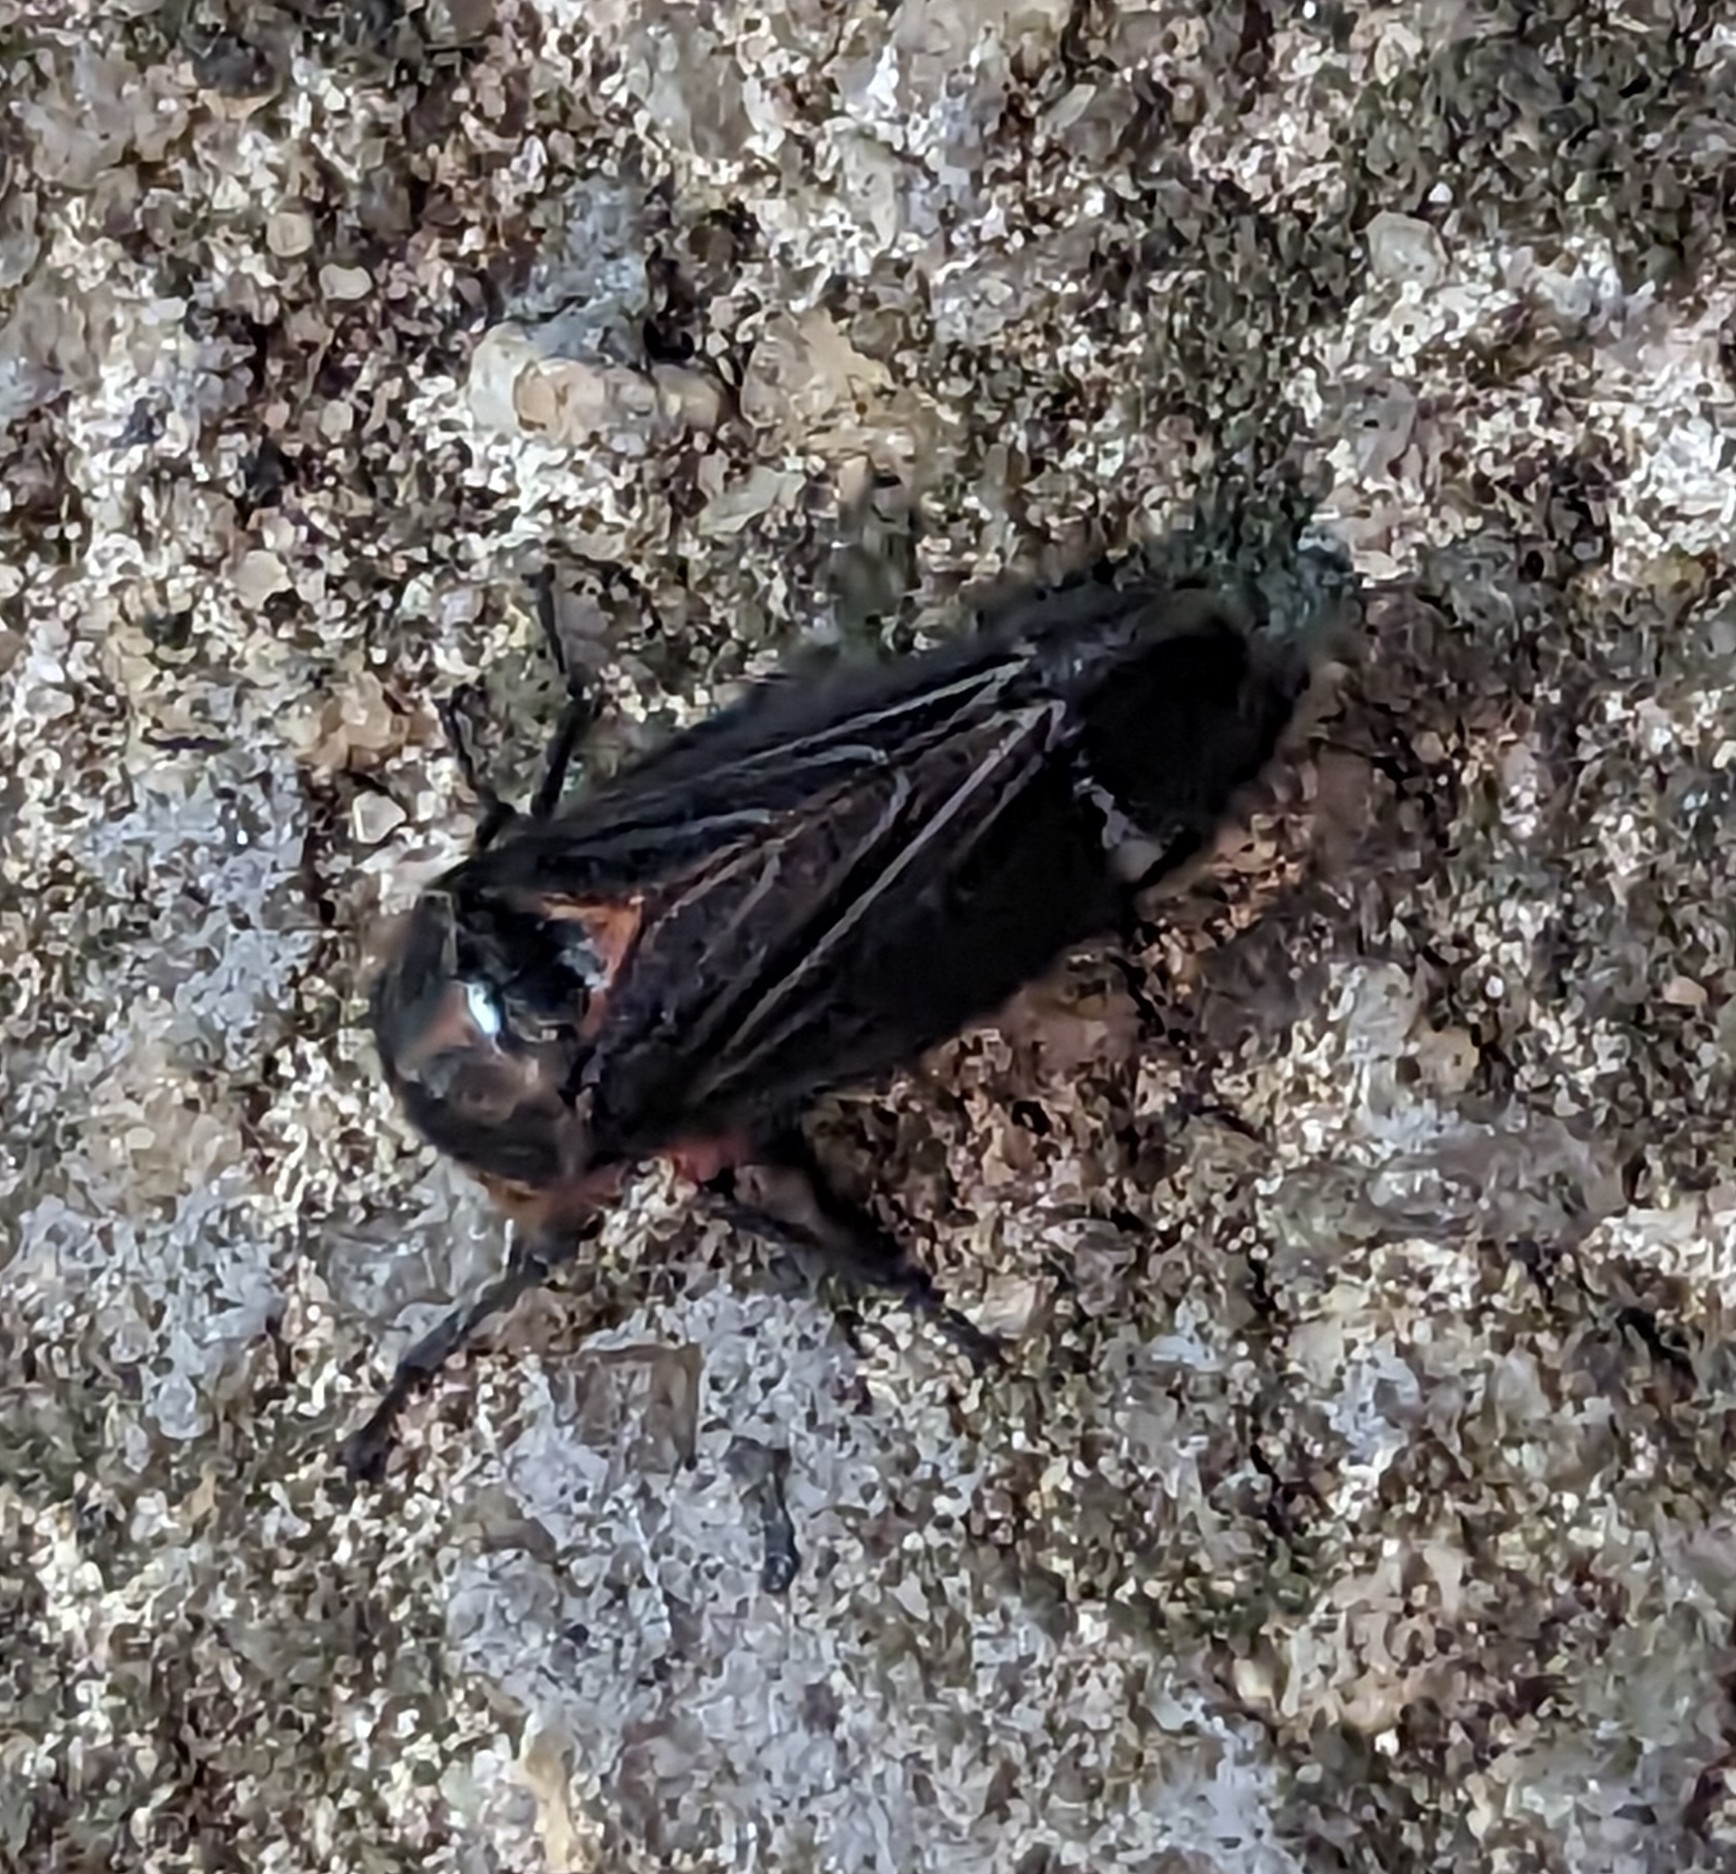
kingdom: Animalia
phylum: Arthropoda
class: Insecta
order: Hemiptera
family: Cicadellidae
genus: Eurymeloides
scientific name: Eurymeloides lineata
